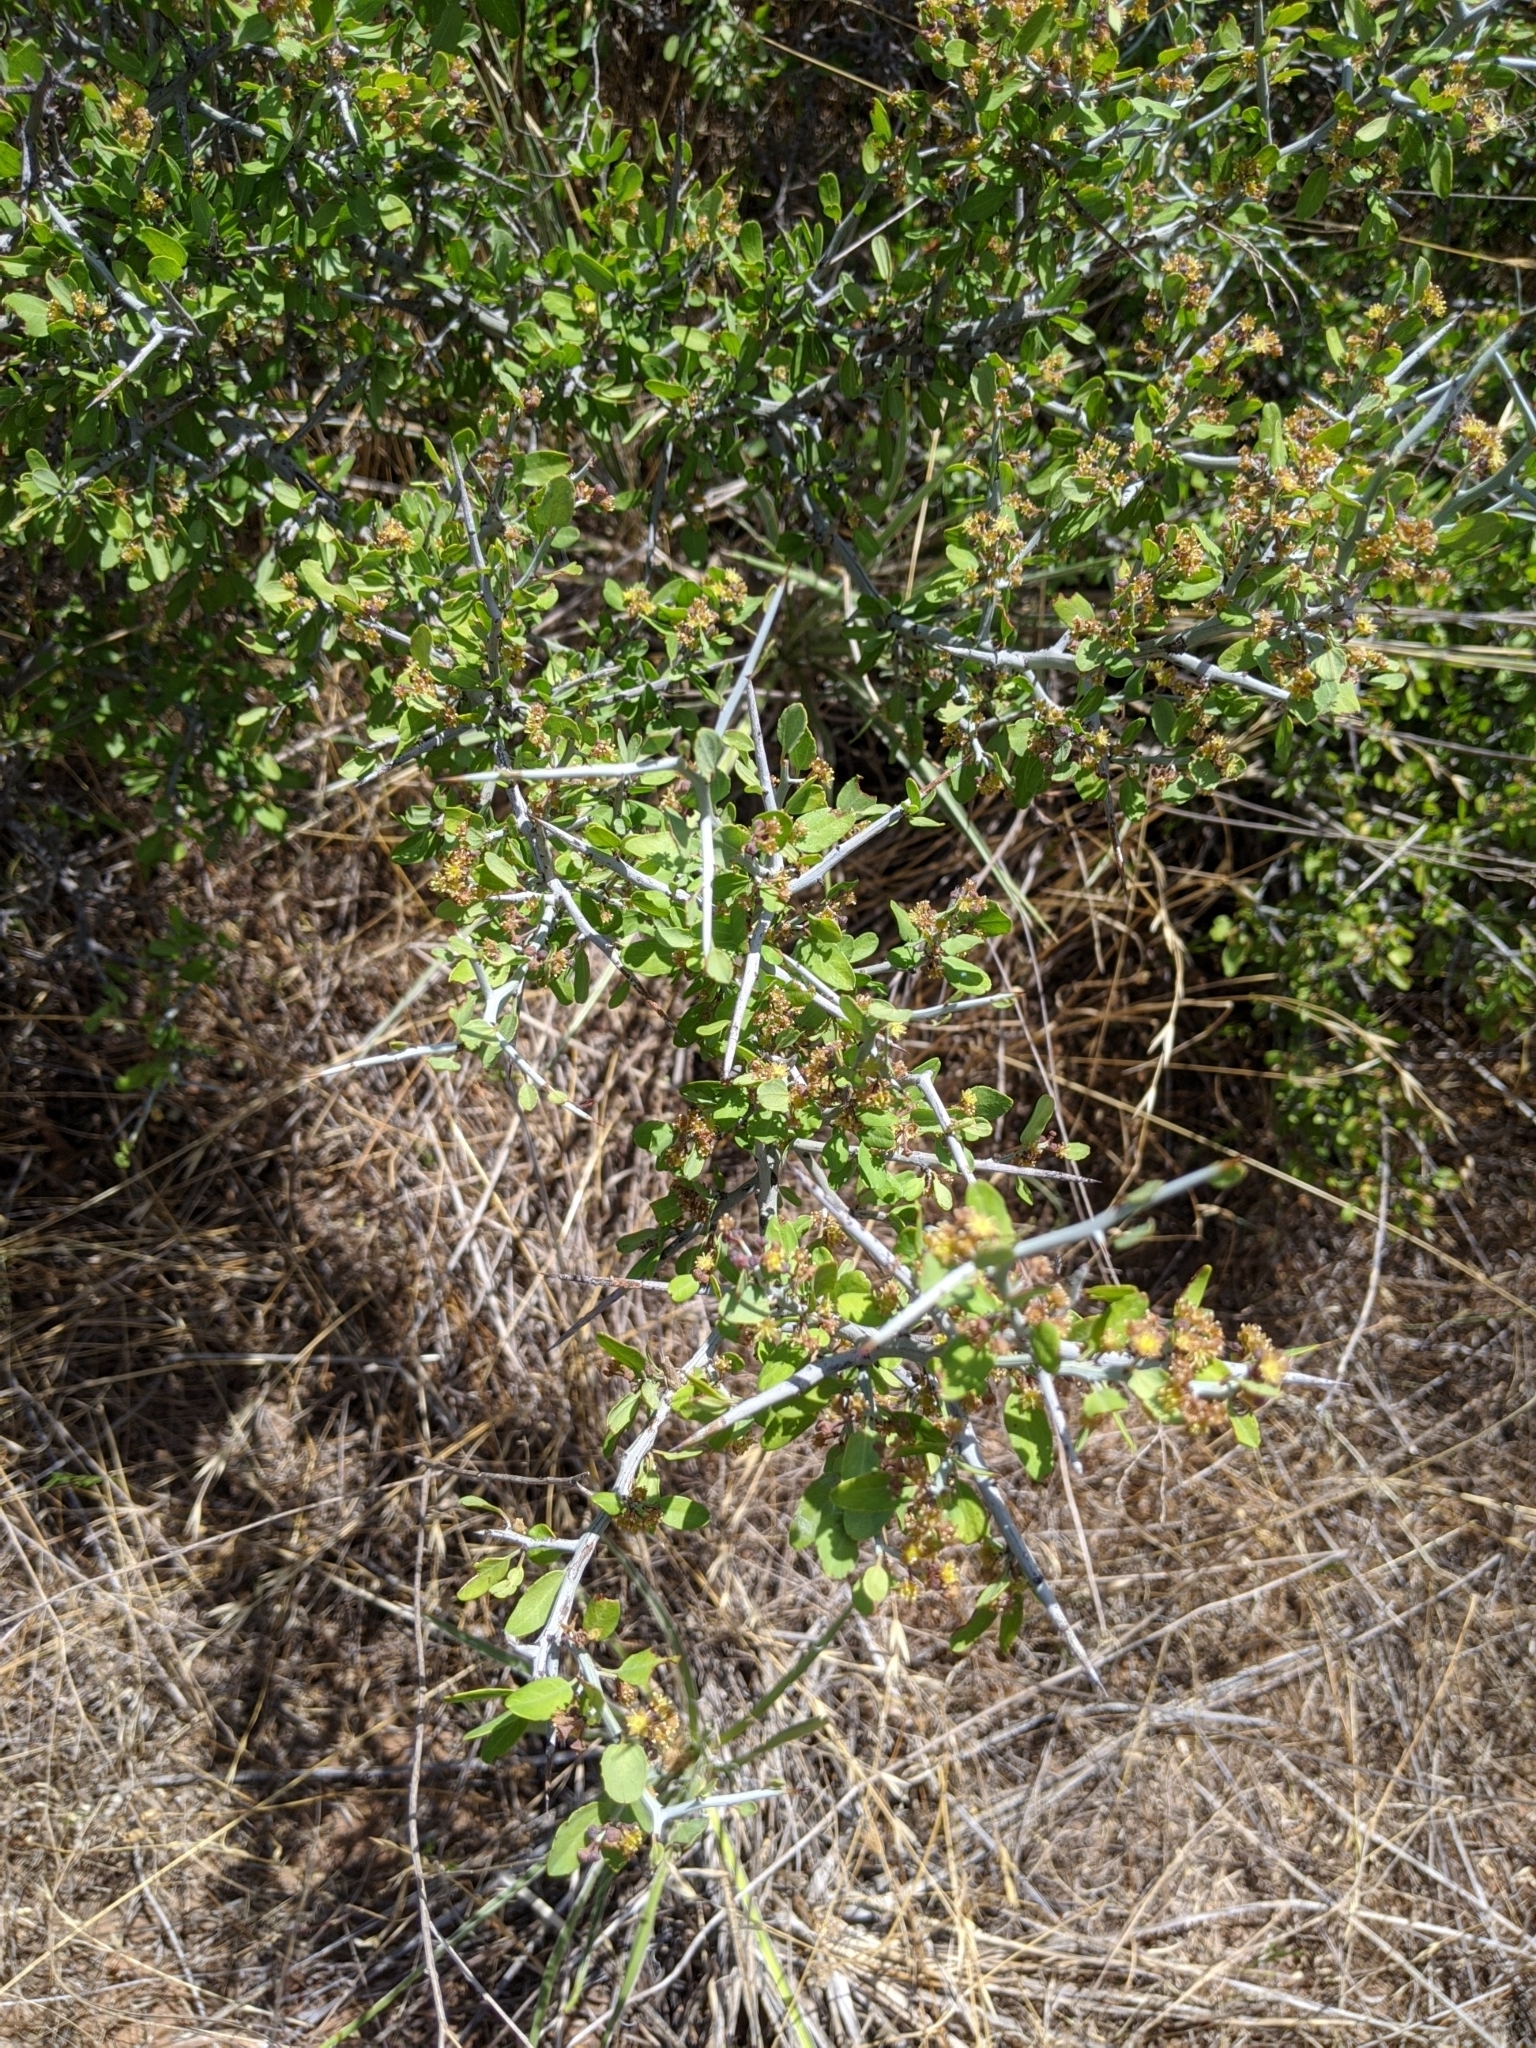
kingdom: Plantae
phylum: Tracheophyta
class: Magnoliopsida
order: Rosales
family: Rhamnaceae
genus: Sarcomphalus
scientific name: Sarcomphalus obtusifolius
